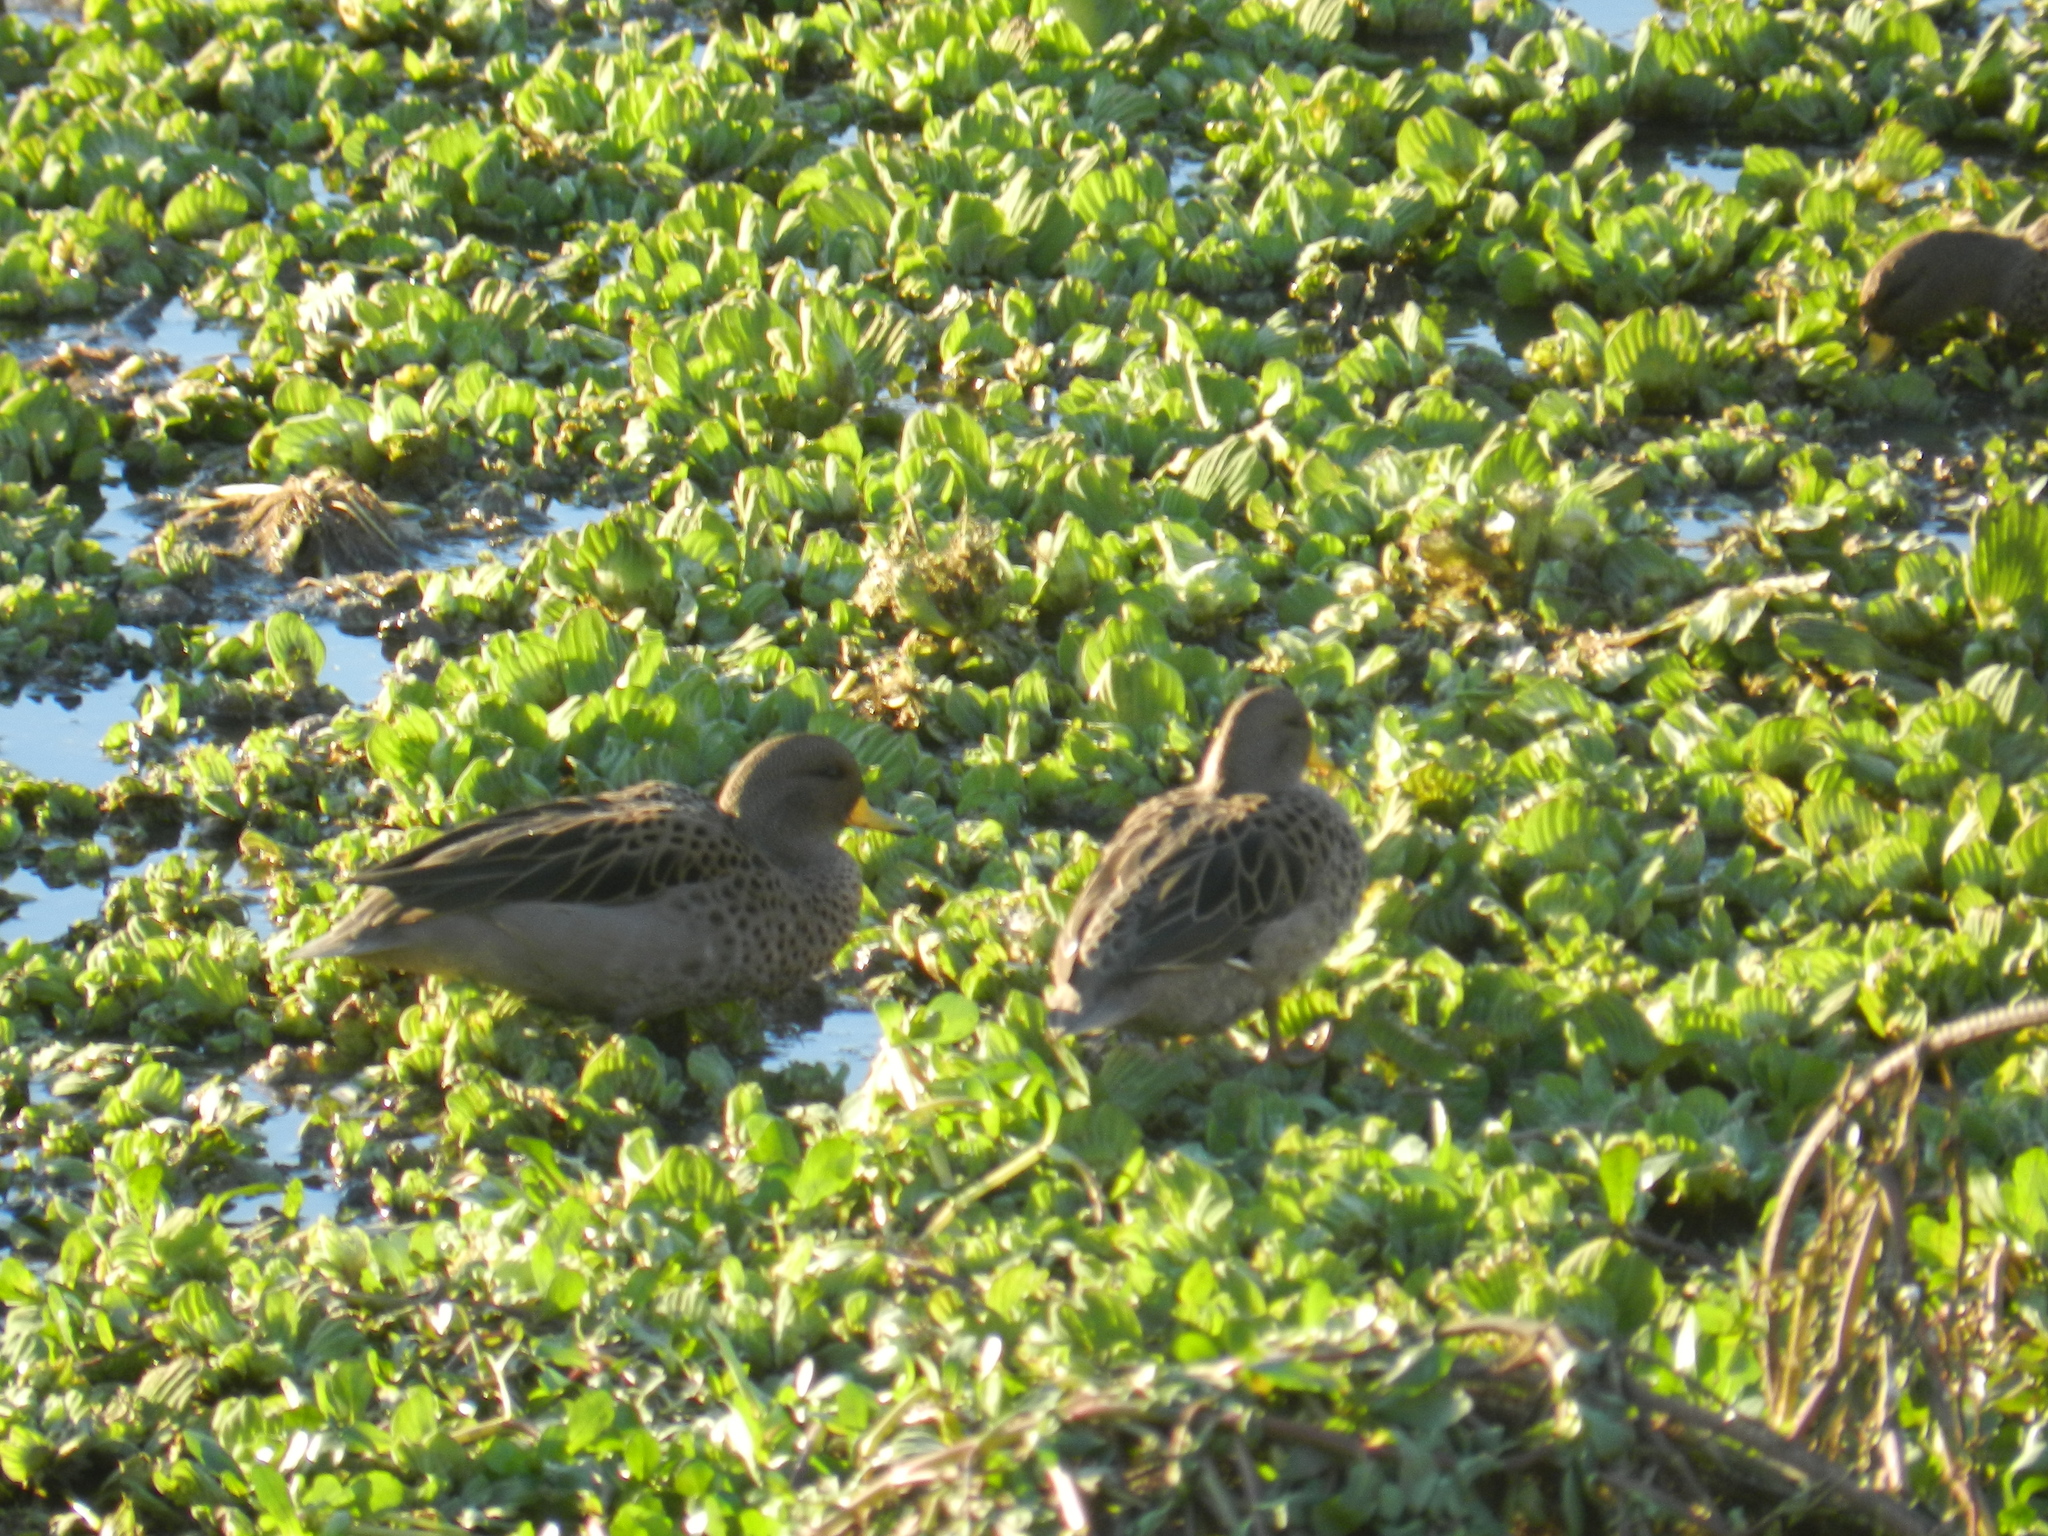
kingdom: Animalia
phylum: Chordata
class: Aves
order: Anseriformes
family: Anatidae
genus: Anas
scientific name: Anas flavirostris
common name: Yellow-billed teal
